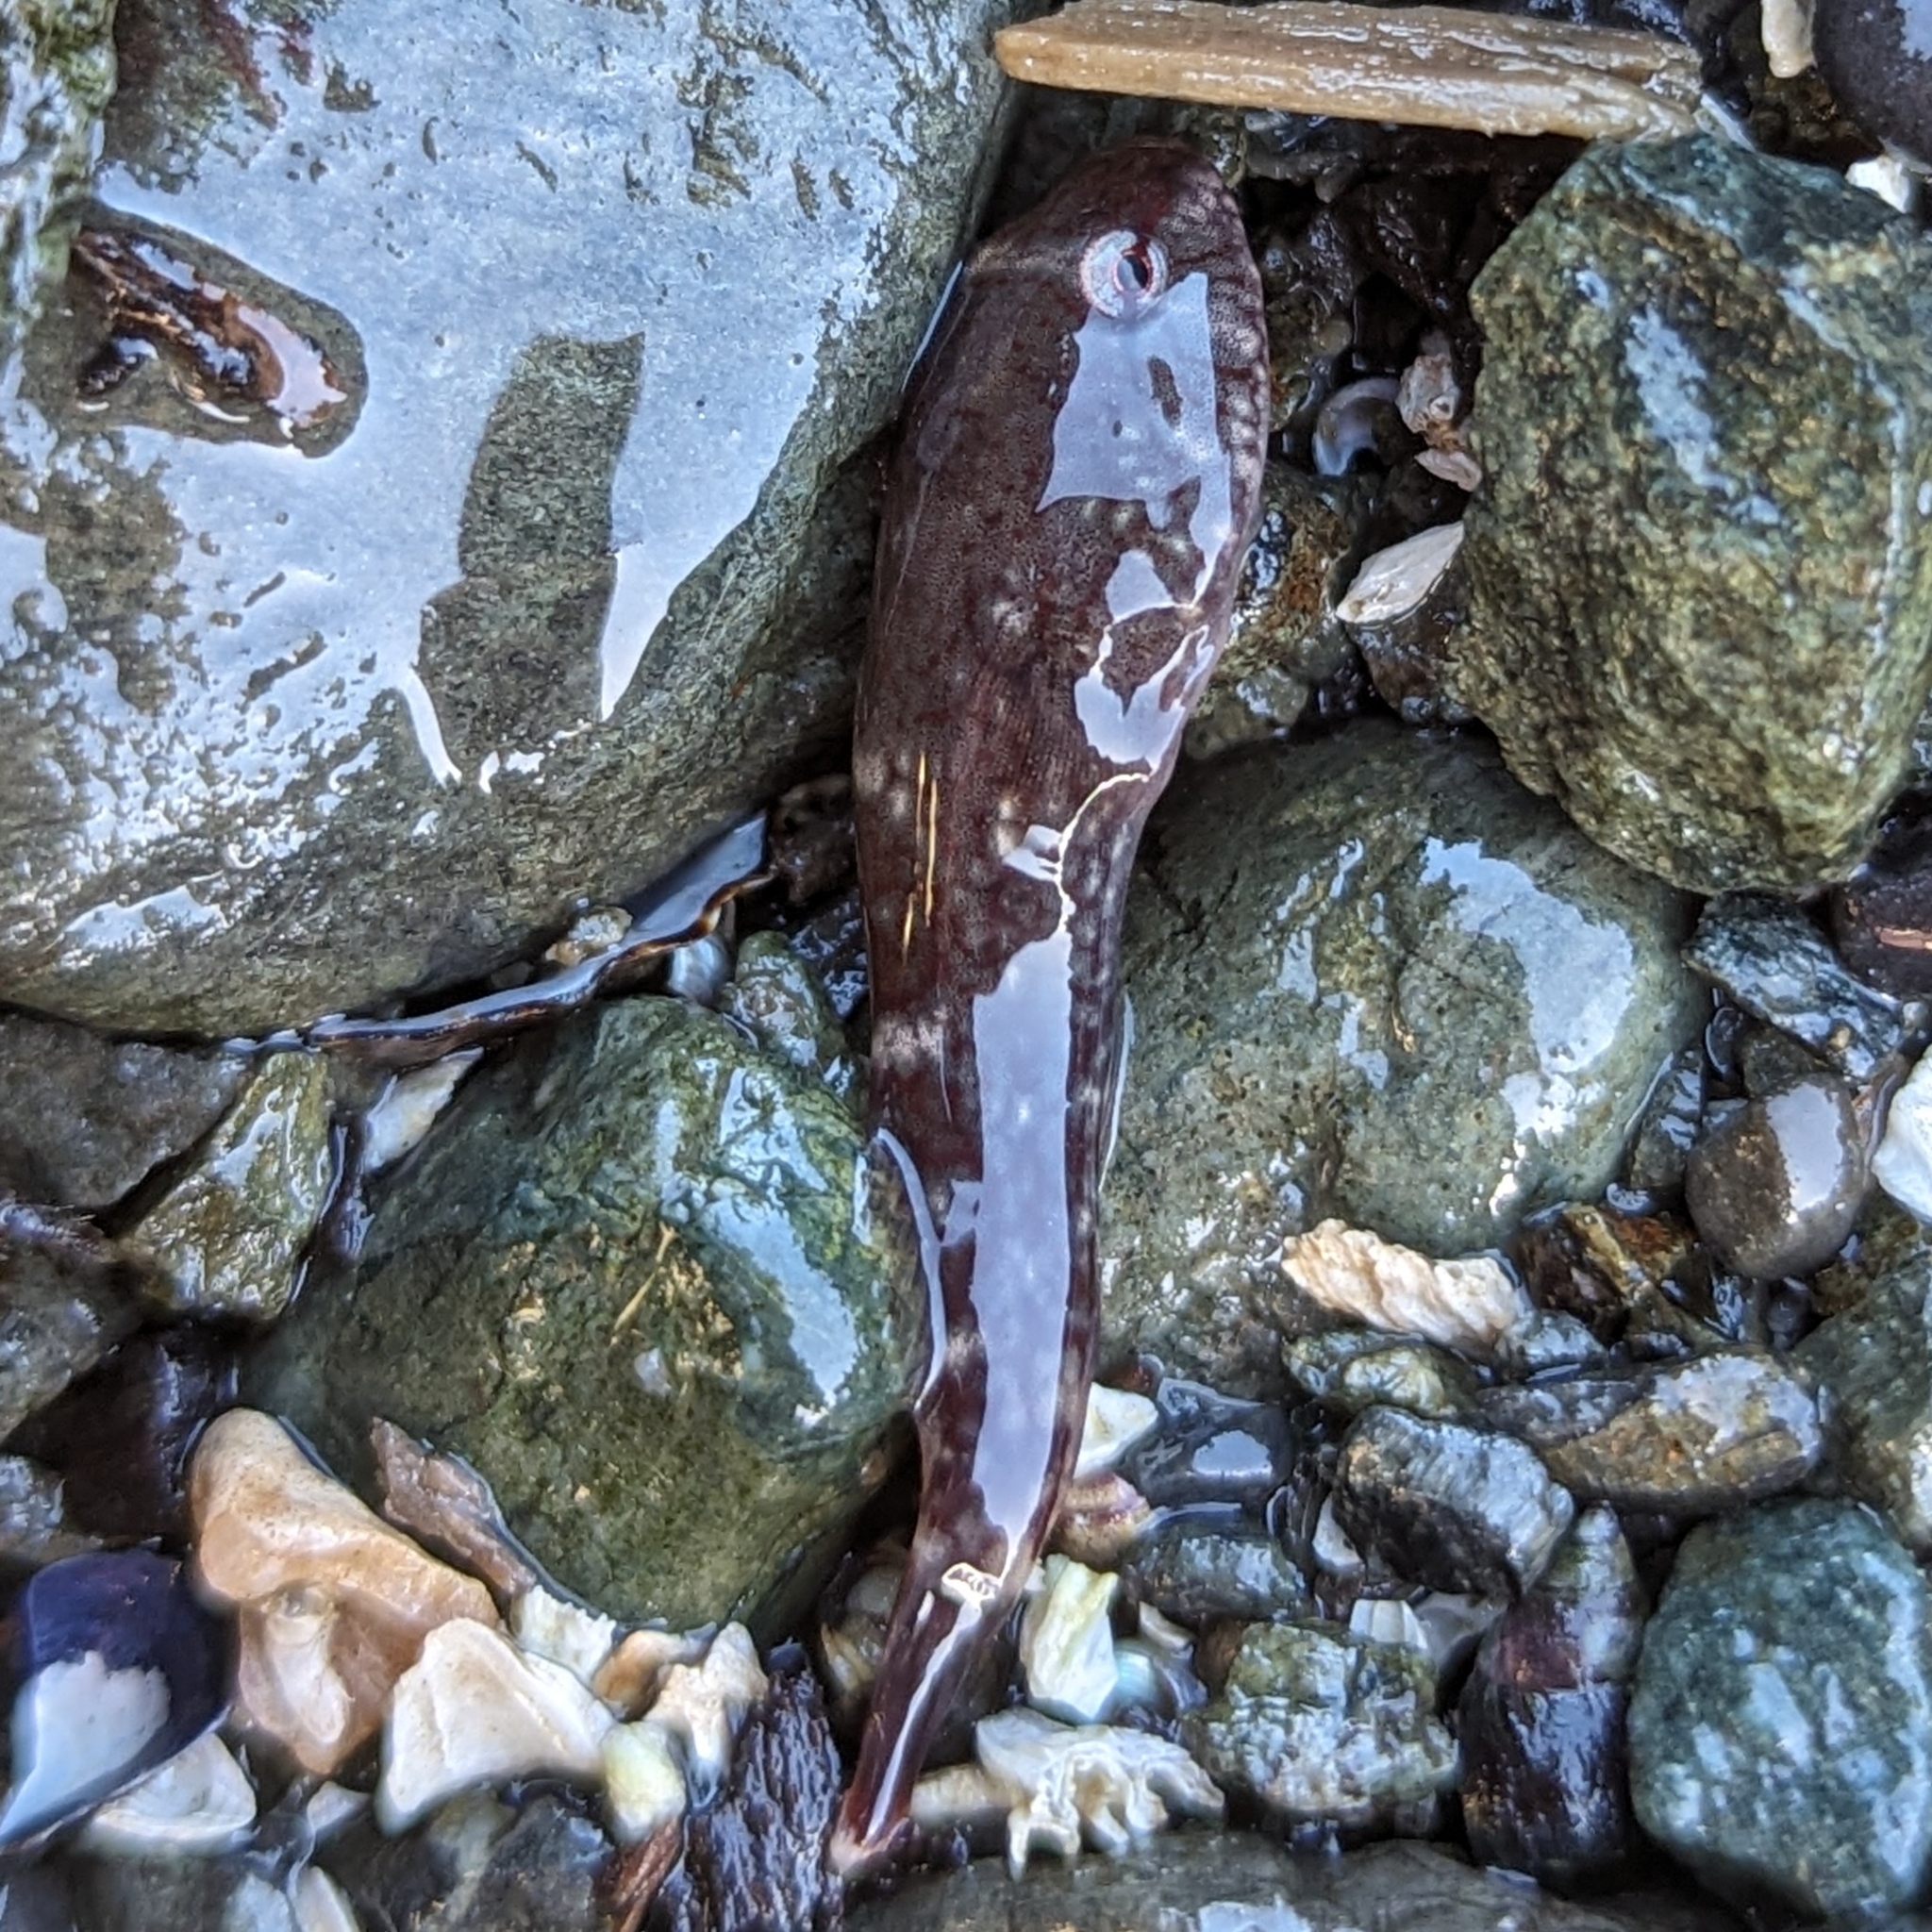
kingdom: Animalia
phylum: Chordata
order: Gobiesociformes
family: Gobiesocidae
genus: Gobiesox
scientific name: Gobiesox maeandricus
